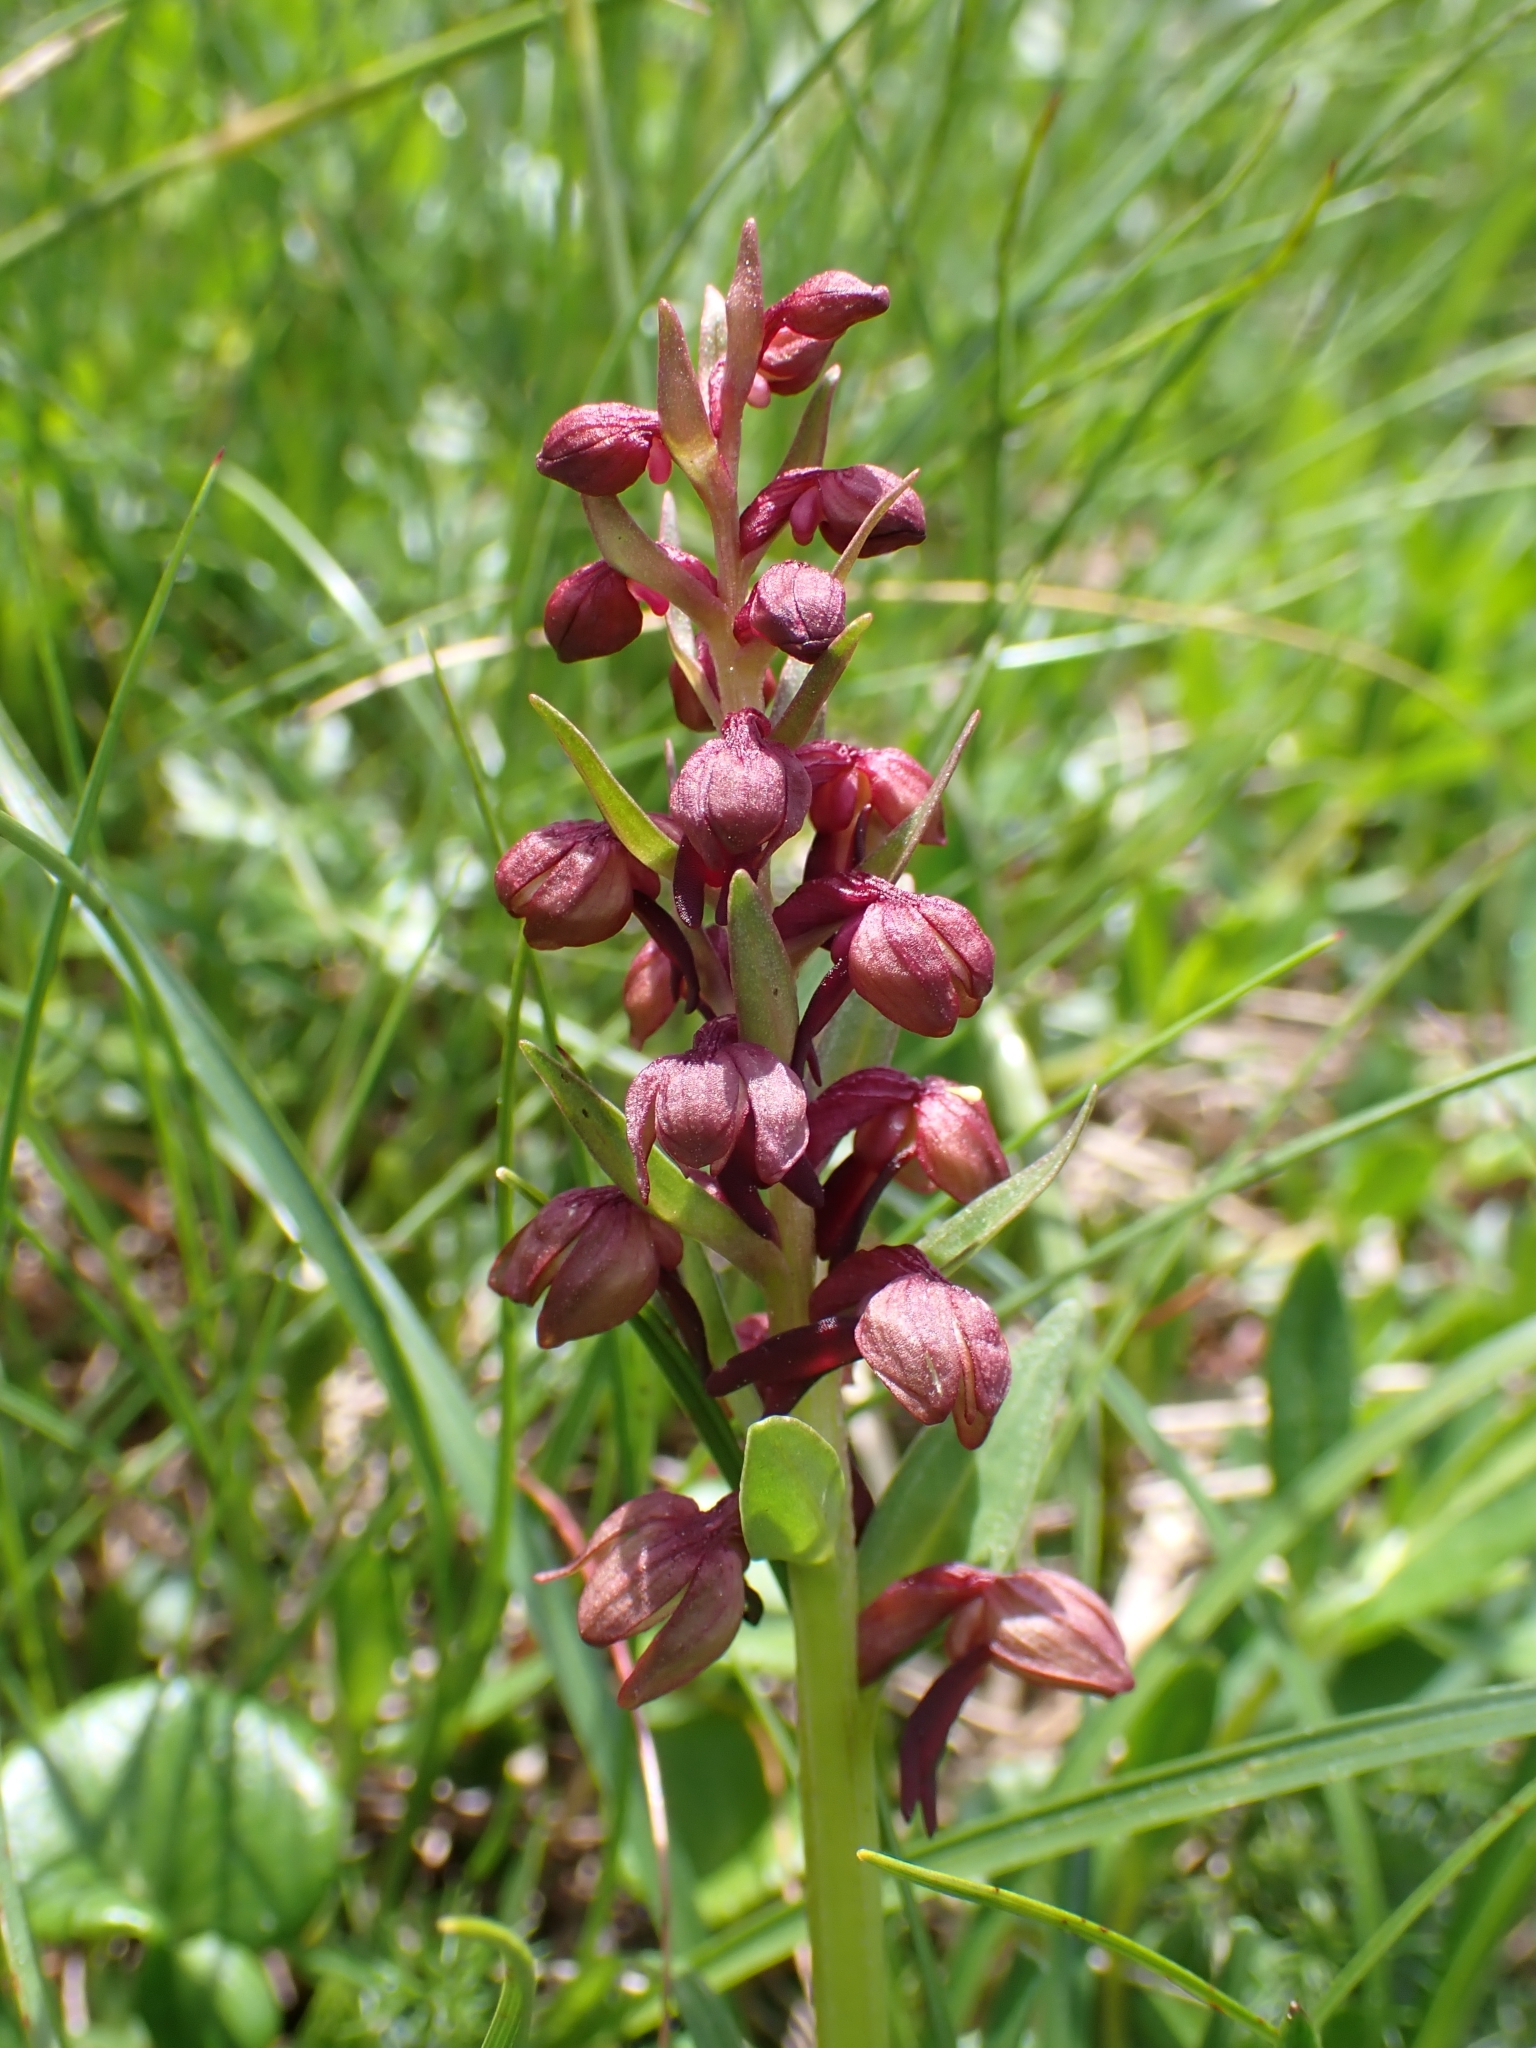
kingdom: Plantae
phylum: Tracheophyta
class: Liliopsida
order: Asparagales
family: Orchidaceae
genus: Dactylorhiza
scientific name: Dactylorhiza viridis
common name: Longbract frog orchid
